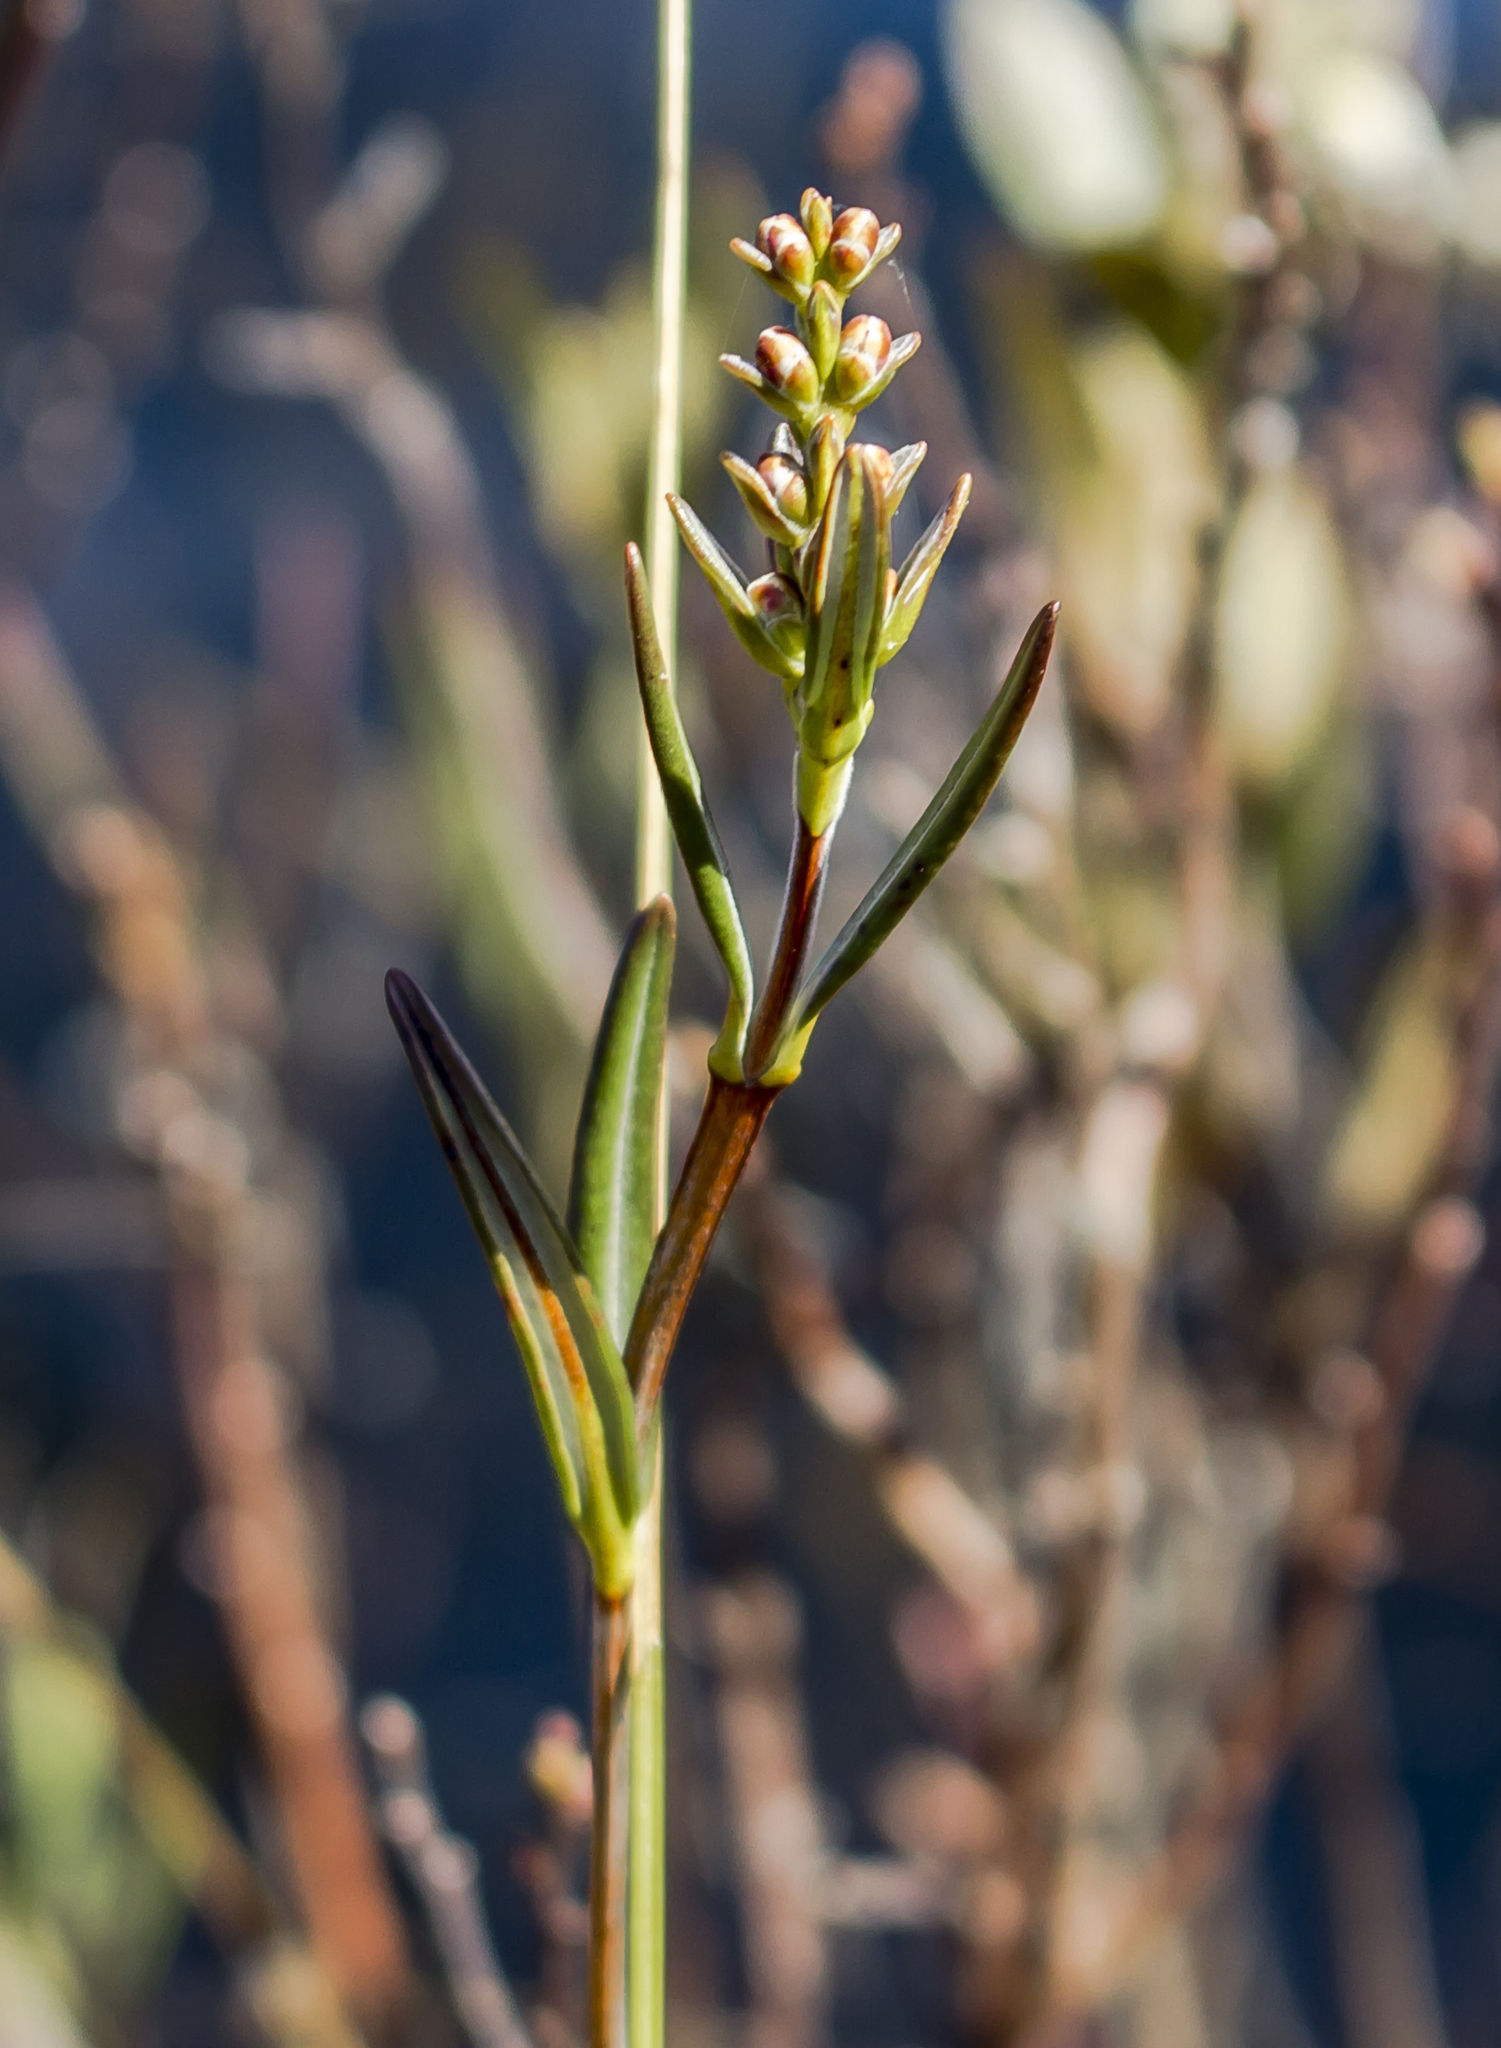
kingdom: Plantae
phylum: Tracheophyta
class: Magnoliopsida
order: Ericales
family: Ericaceae
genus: Kalmia
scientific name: Kalmia polifolia
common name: Bog-laurel
